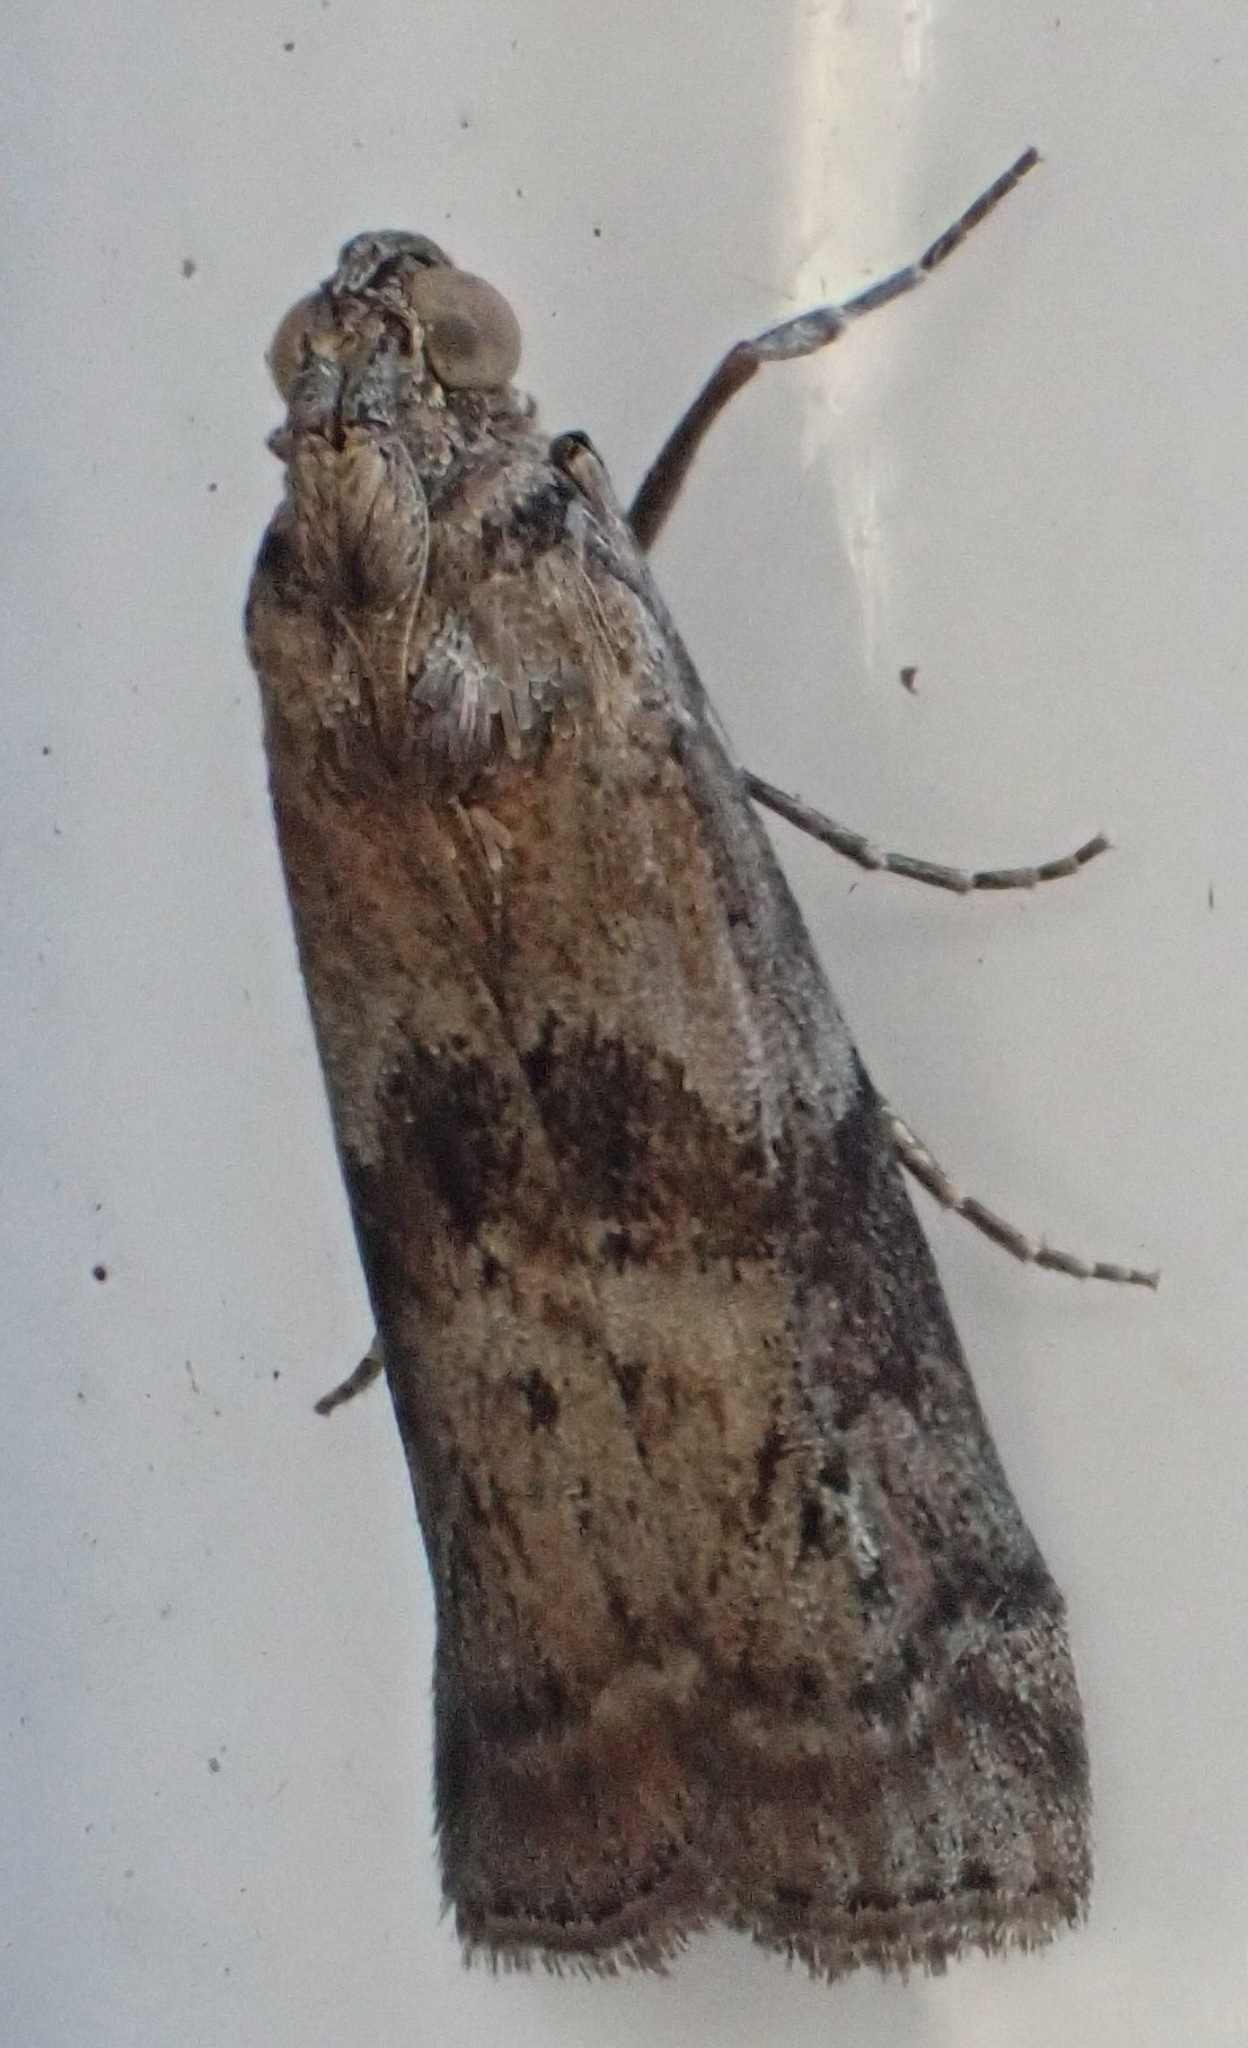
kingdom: Animalia
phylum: Arthropoda
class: Insecta
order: Lepidoptera
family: Pyralidae
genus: Phycita
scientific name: Phycita roborella
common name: Dotted oak knot-horn
